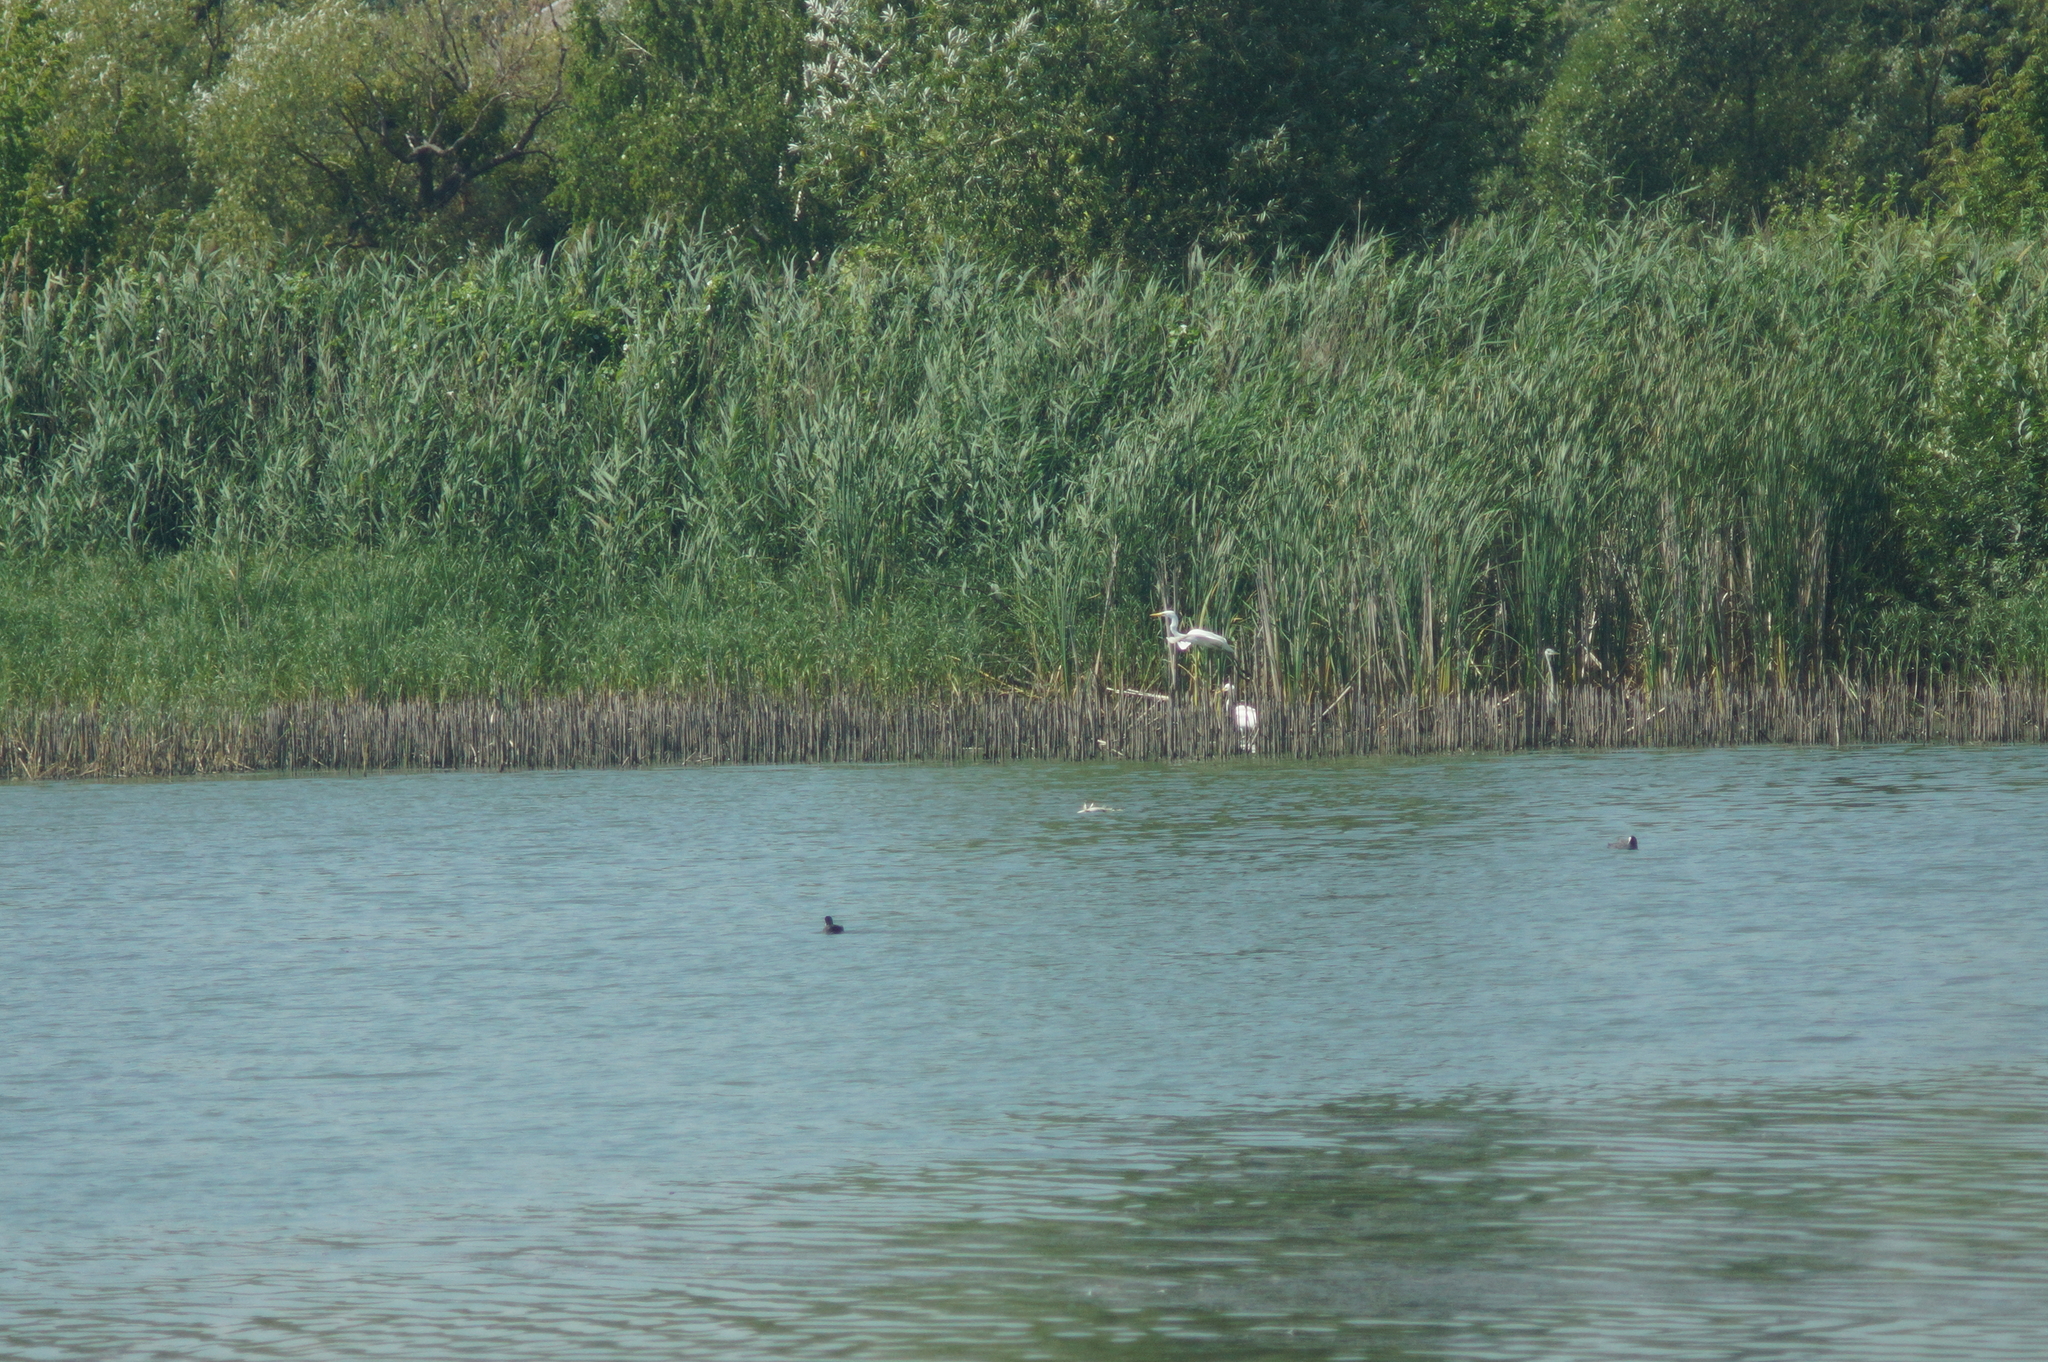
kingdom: Animalia
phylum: Chordata
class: Aves
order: Gruiformes
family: Rallidae
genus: Fulica
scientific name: Fulica atra
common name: Eurasian coot
